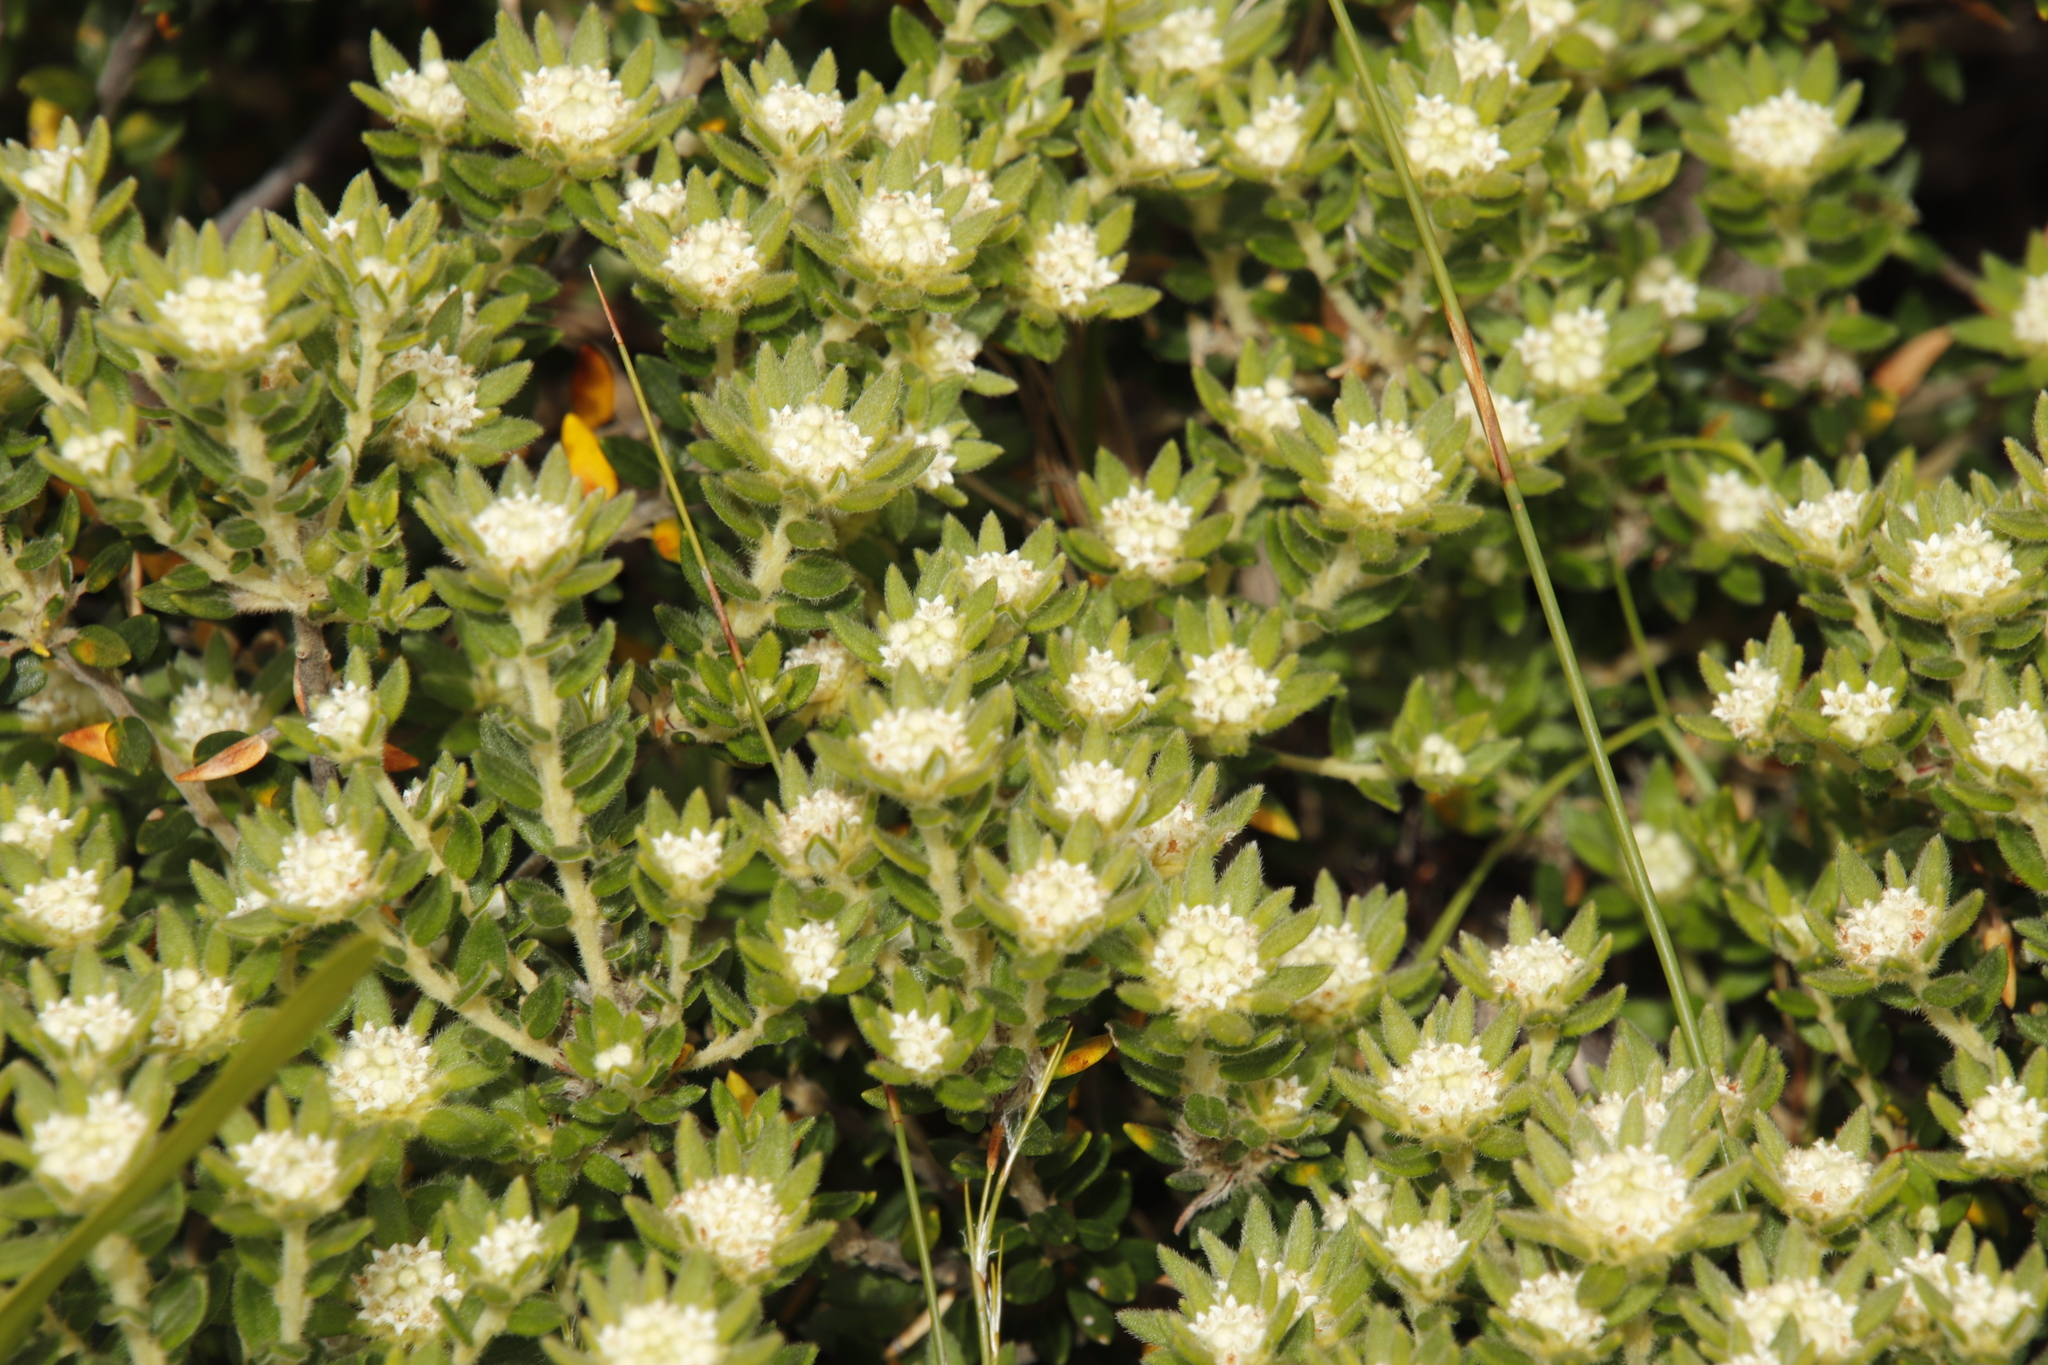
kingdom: Plantae
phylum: Tracheophyta
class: Magnoliopsida
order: Rosales
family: Rhamnaceae
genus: Phylica
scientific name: Phylica dioica
